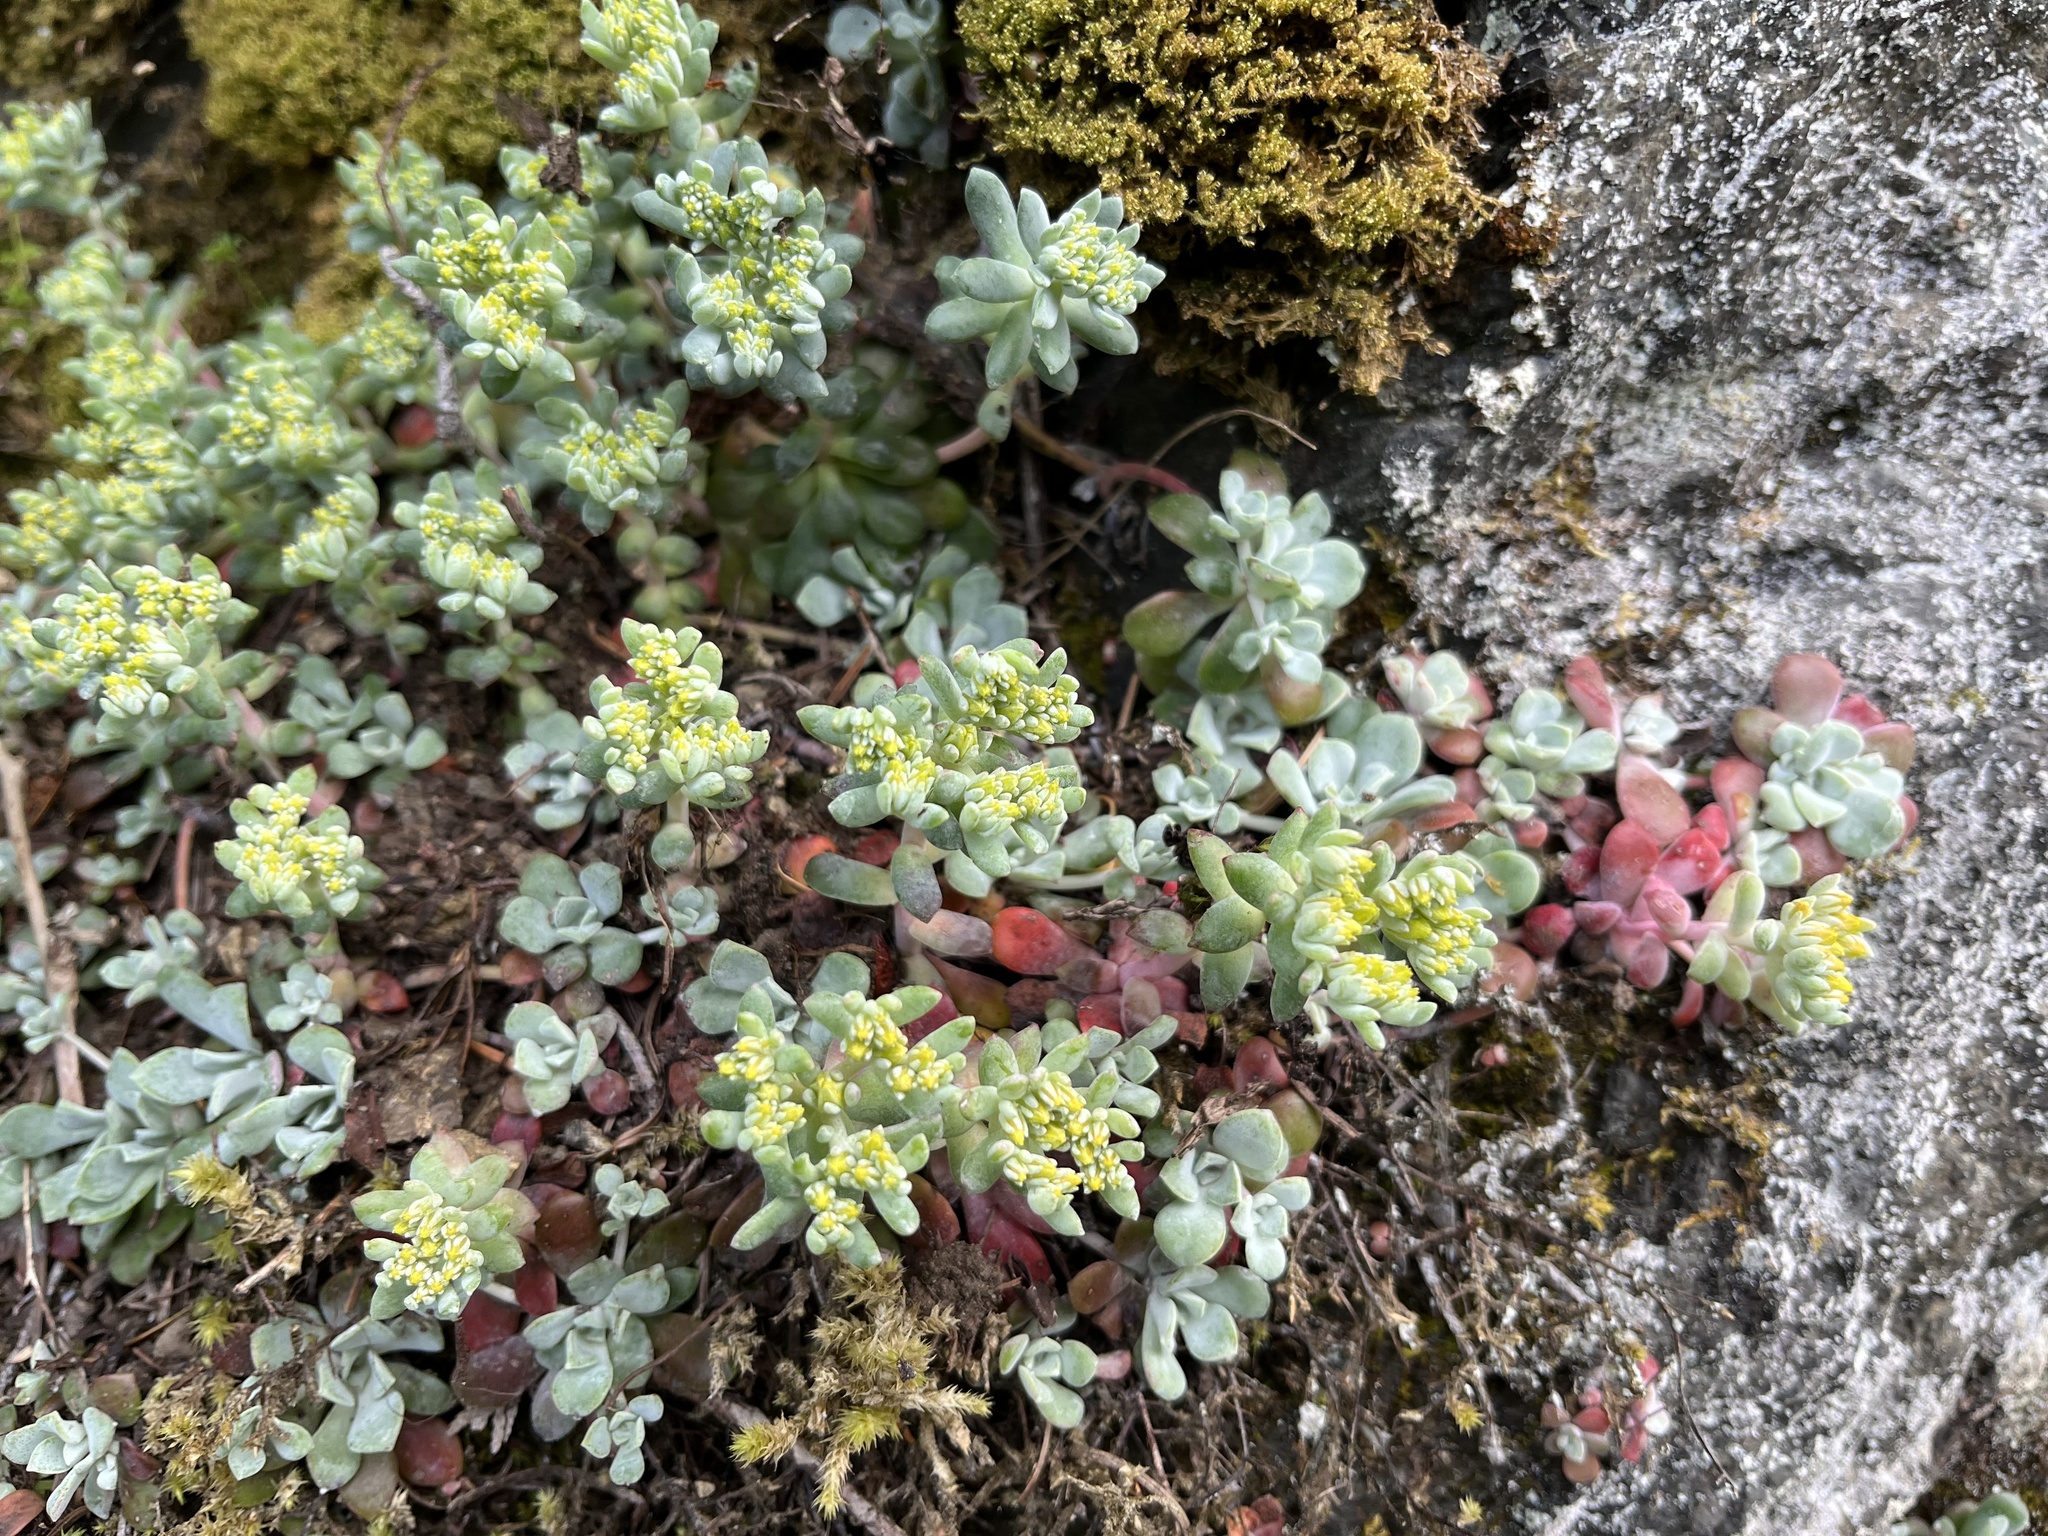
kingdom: Plantae
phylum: Tracheophyta
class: Magnoliopsida
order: Saxifragales
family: Crassulaceae
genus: Sedum
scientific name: Sedum spathulifolium
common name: Colorado stonecrop
